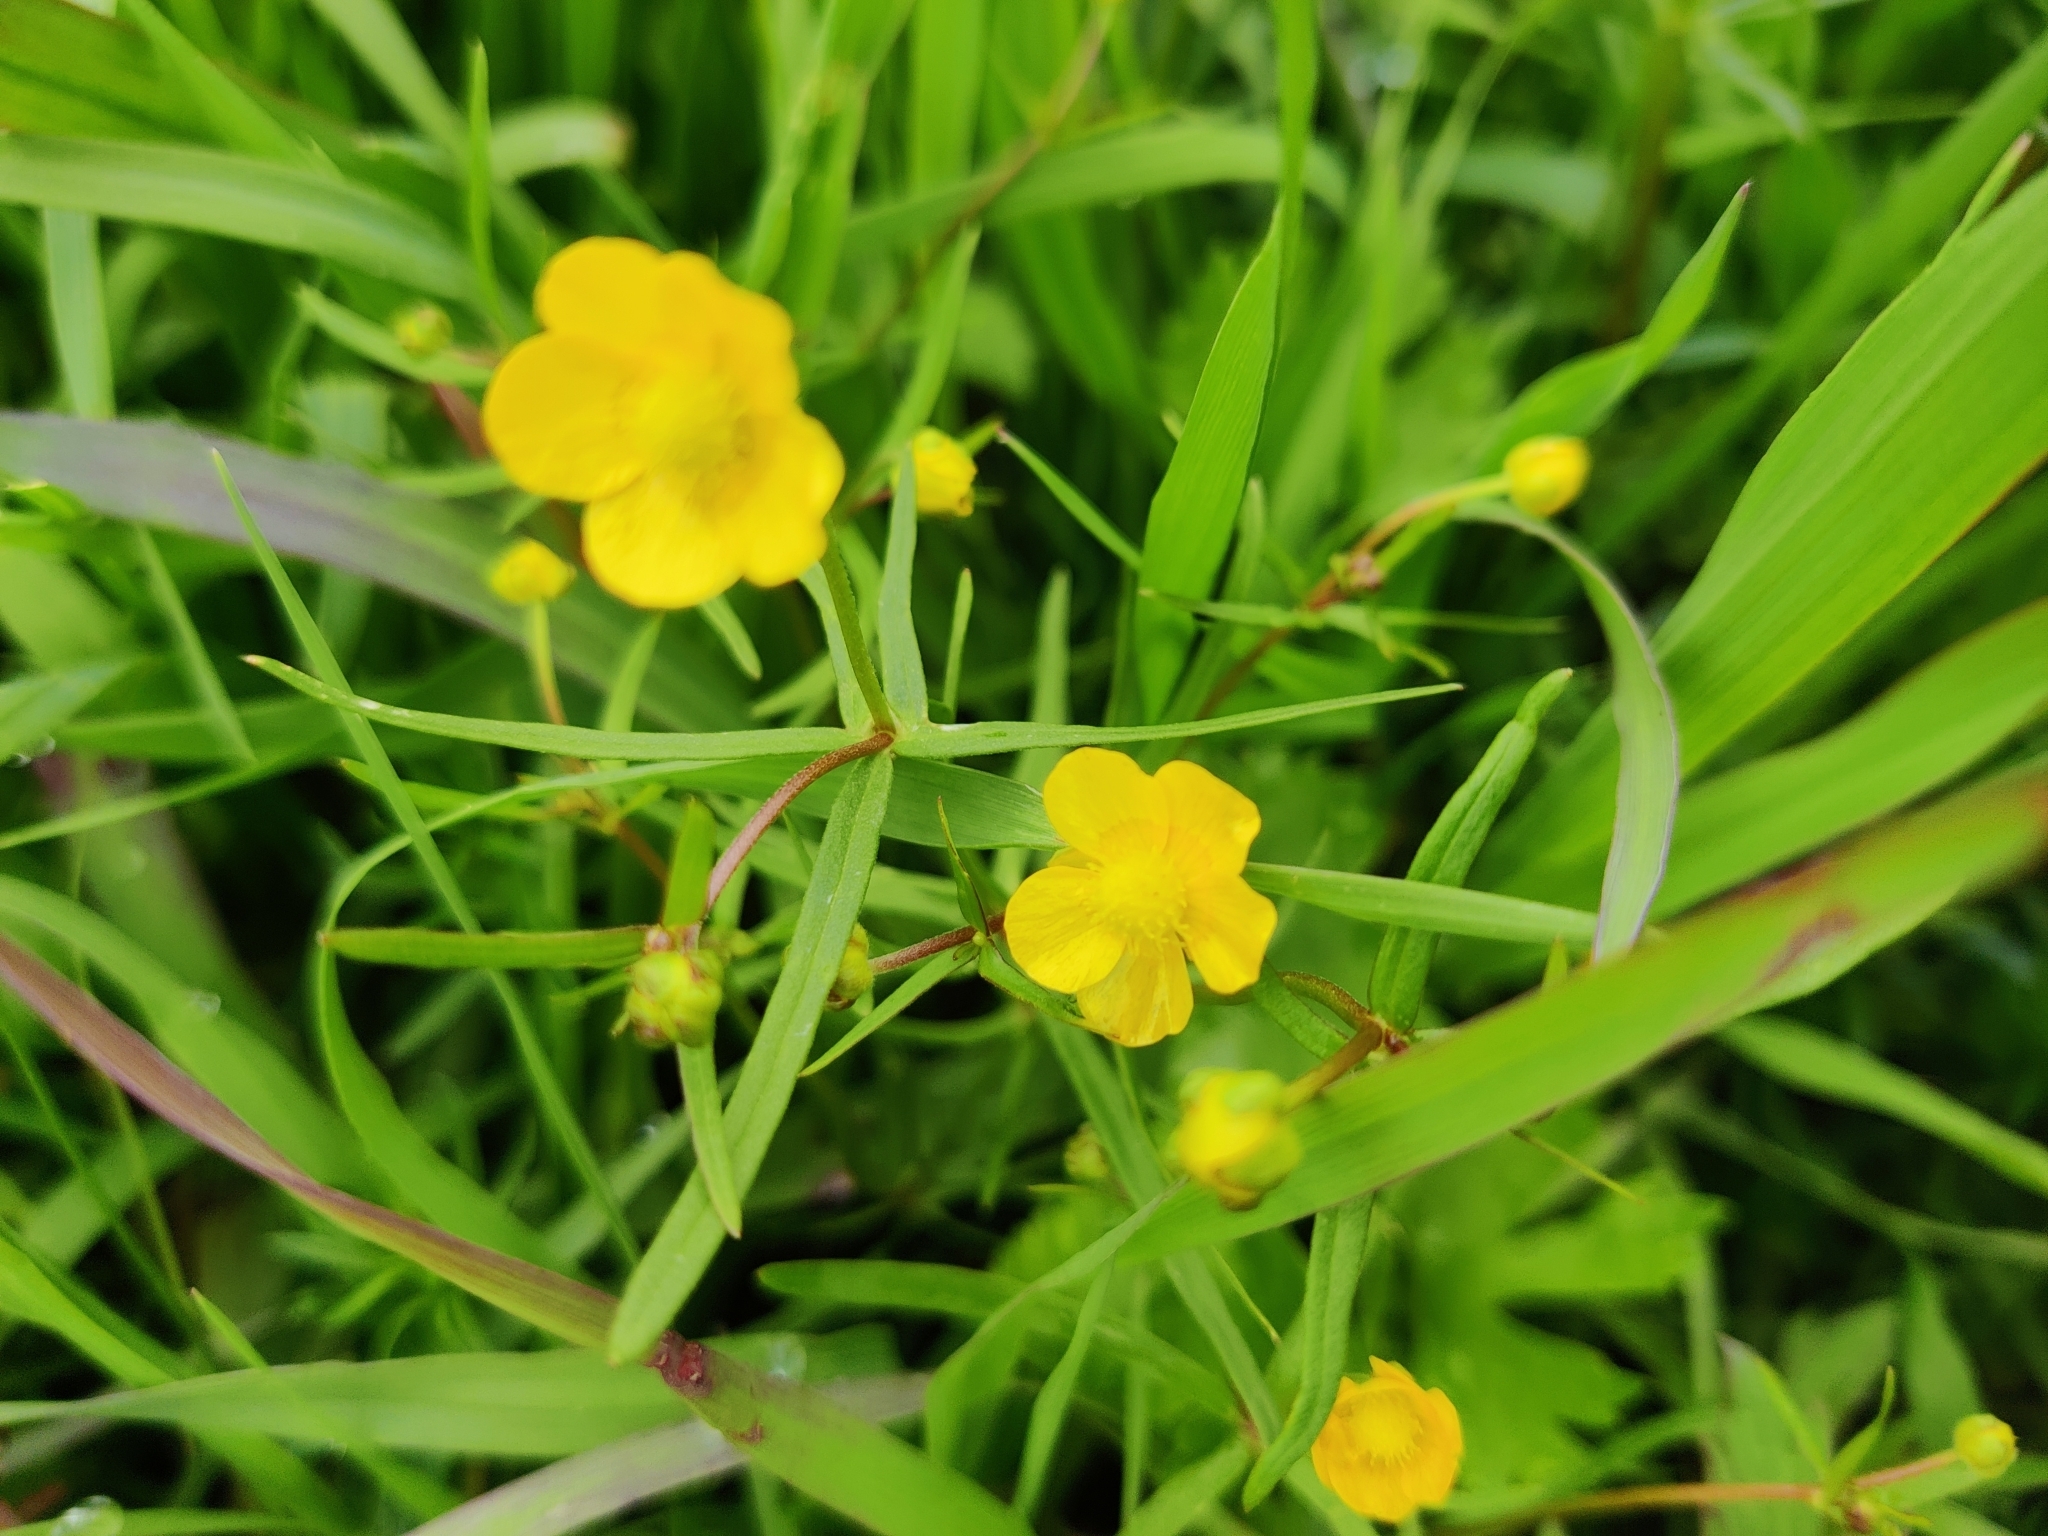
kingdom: Plantae
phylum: Tracheophyta
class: Magnoliopsida
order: Ranunculales
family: Ranunculaceae
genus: Ranunculus
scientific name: Ranunculus auricomus
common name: Goldilocks buttercup
